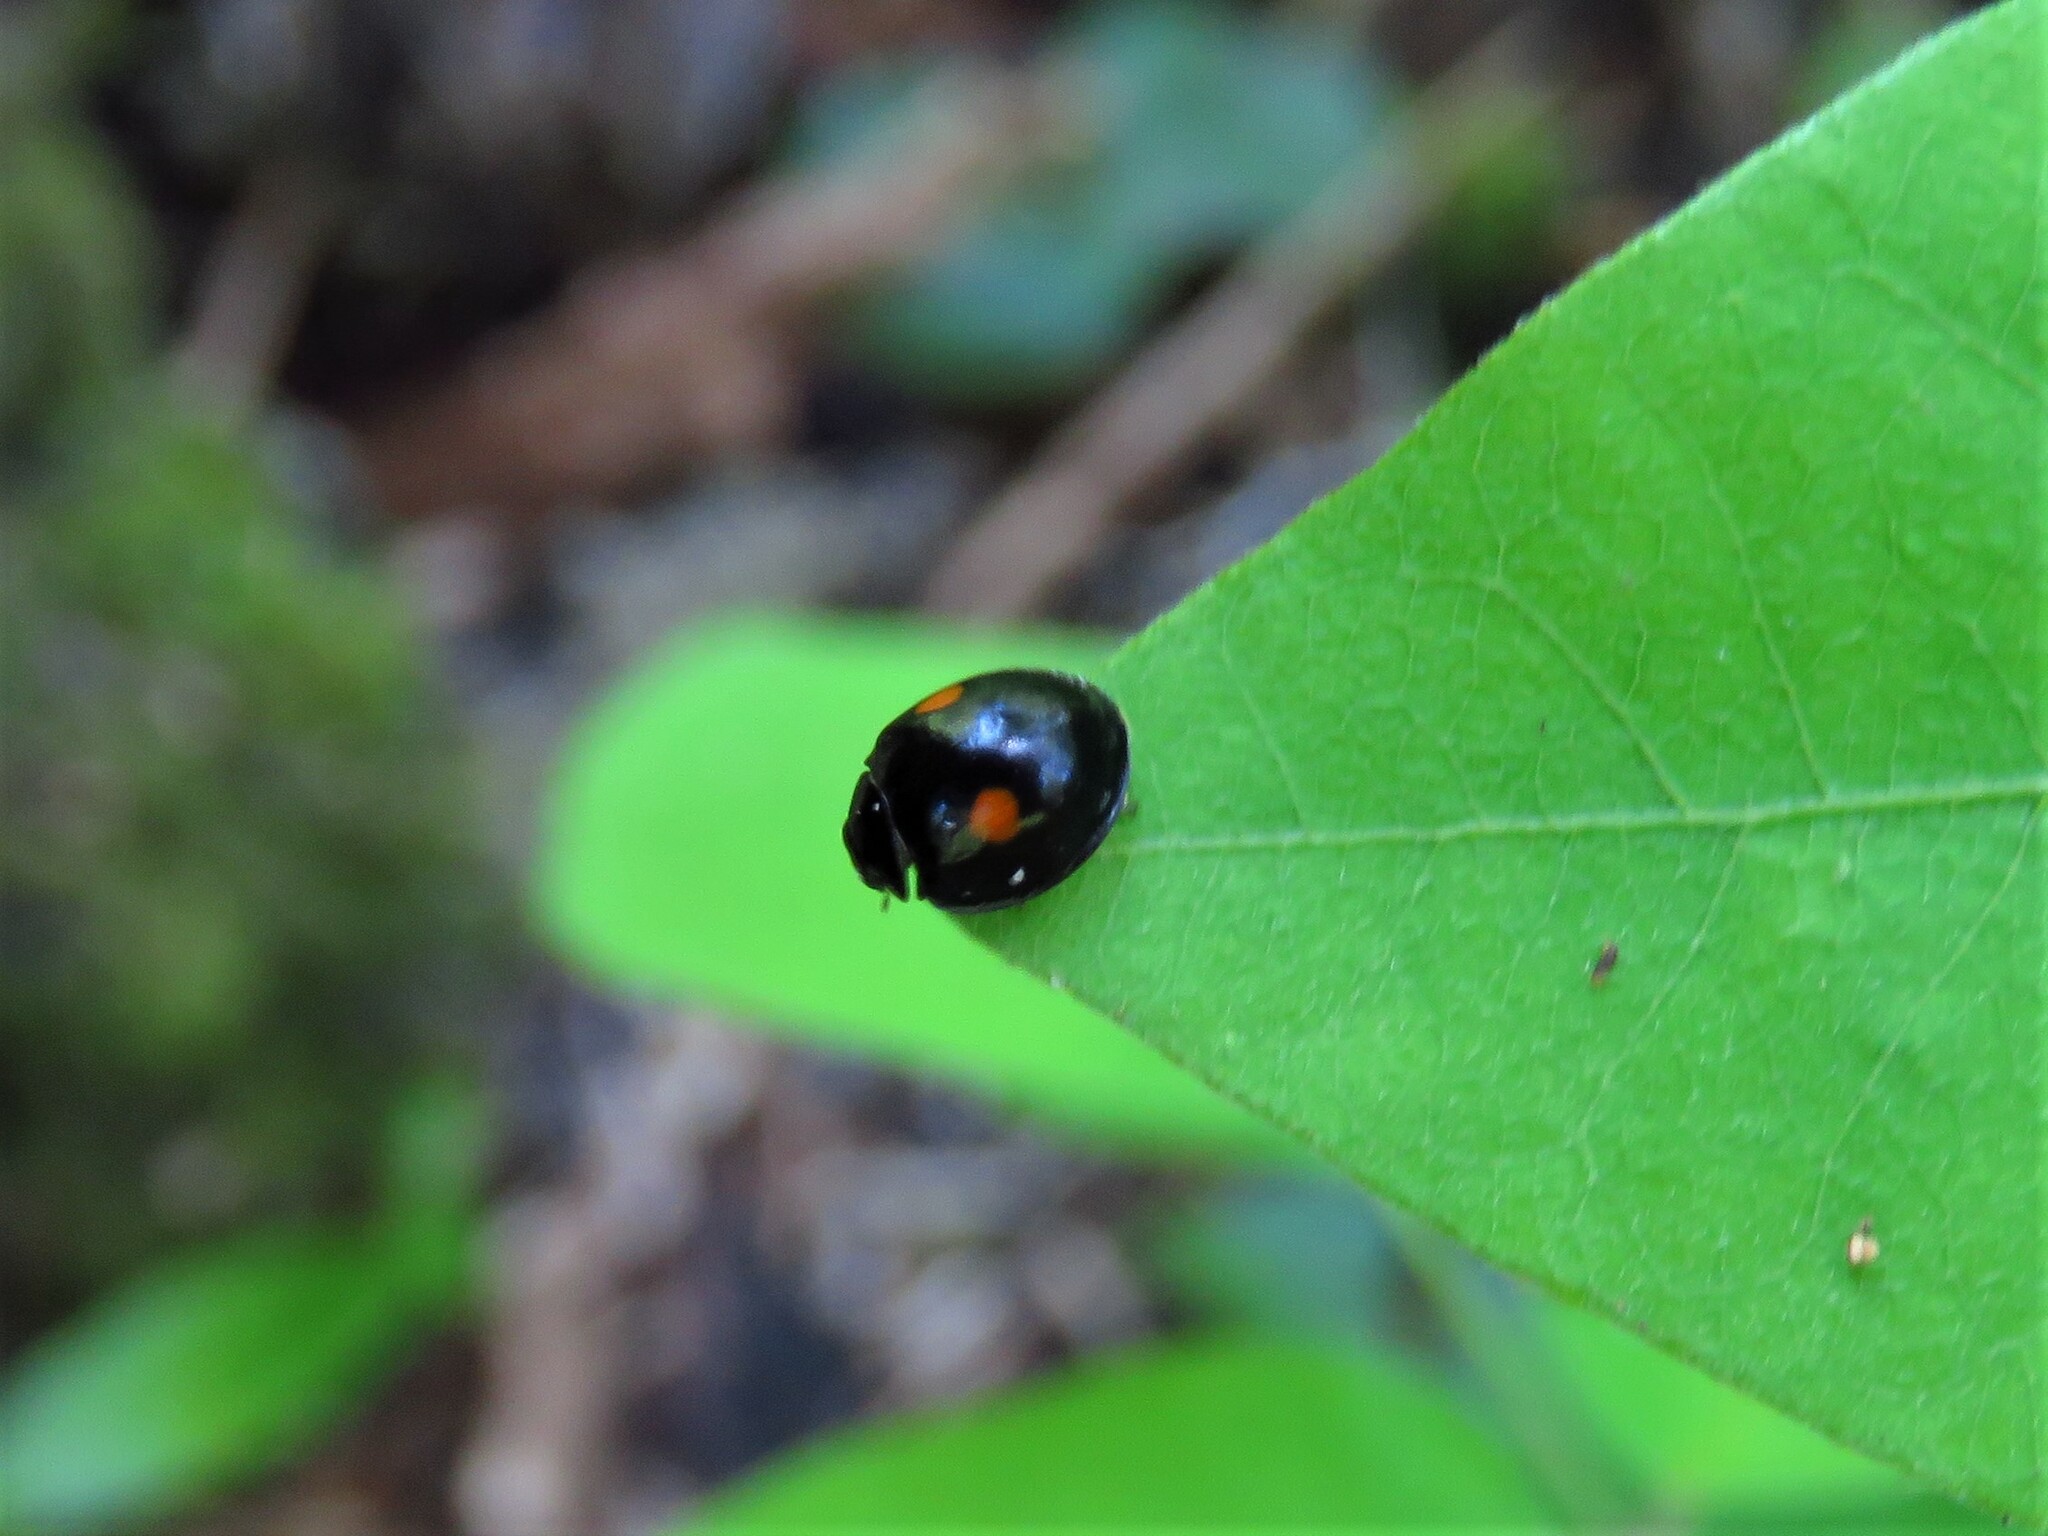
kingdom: Animalia
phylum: Arthropoda
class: Insecta
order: Coleoptera
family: Coccinellidae
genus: Chilocorus
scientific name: Chilocorus stigma
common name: Twicestabbed lady beetle
